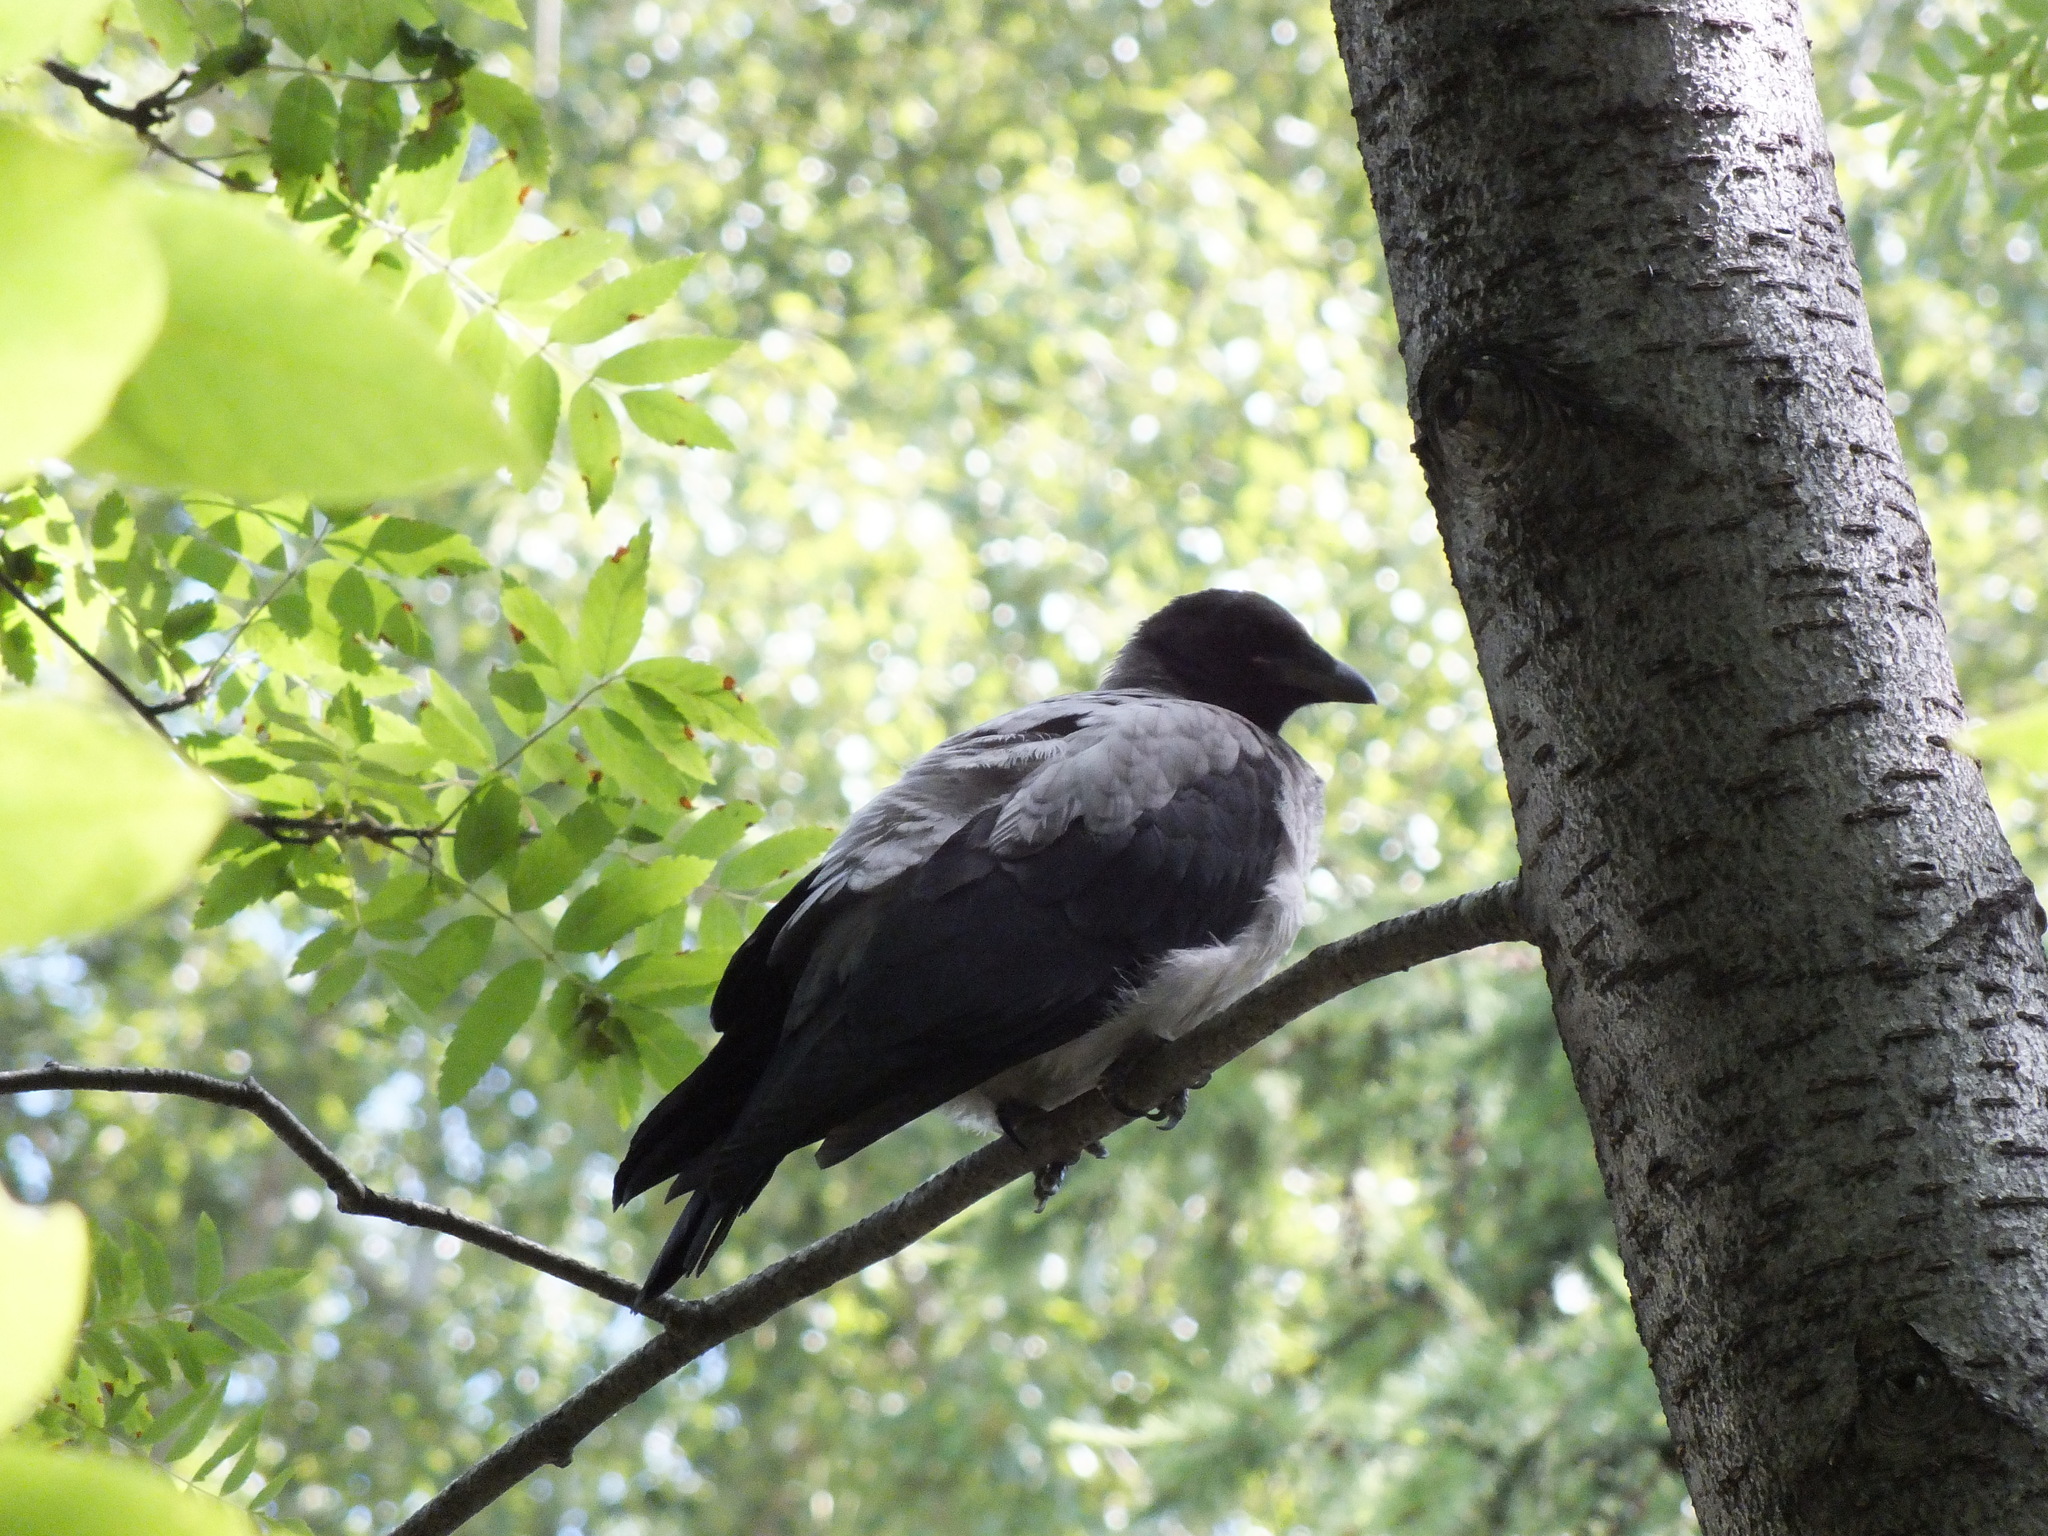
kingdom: Animalia
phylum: Chordata
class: Aves
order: Passeriformes
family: Corvidae
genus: Corvus
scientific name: Corvus cornix
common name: Hooded crow
